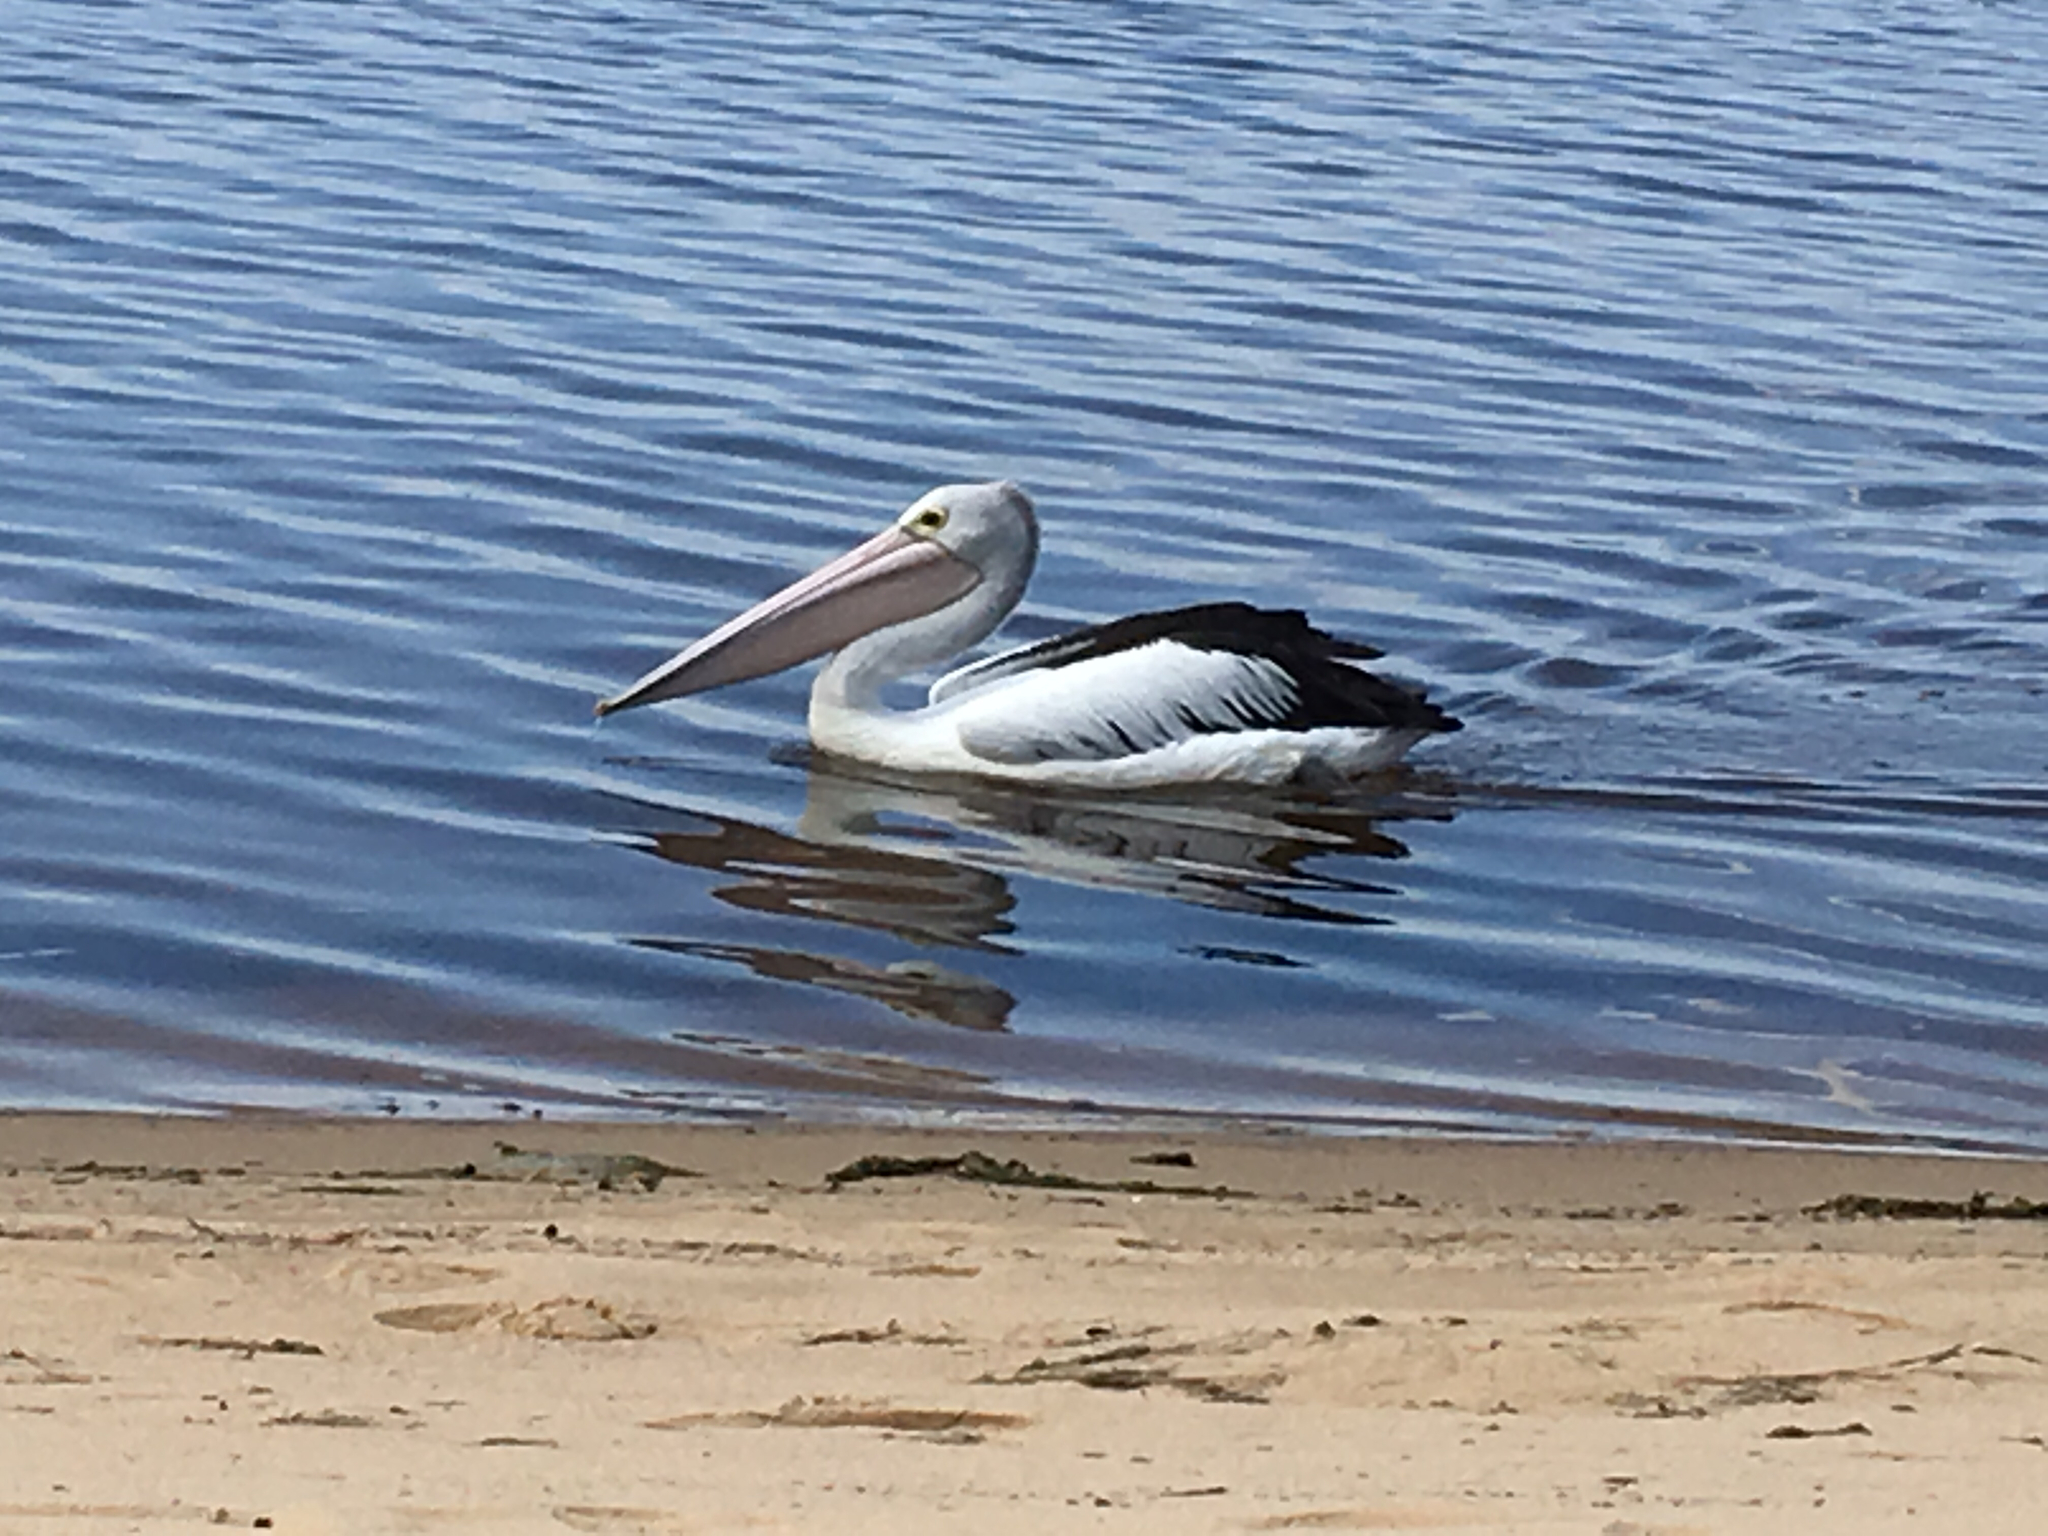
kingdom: Animalia
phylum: Chordata
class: Aves
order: Pelecaniformes
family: Pelecanidae
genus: Pelecanus
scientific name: Pelecanus conspicillatus
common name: Australian pelican
